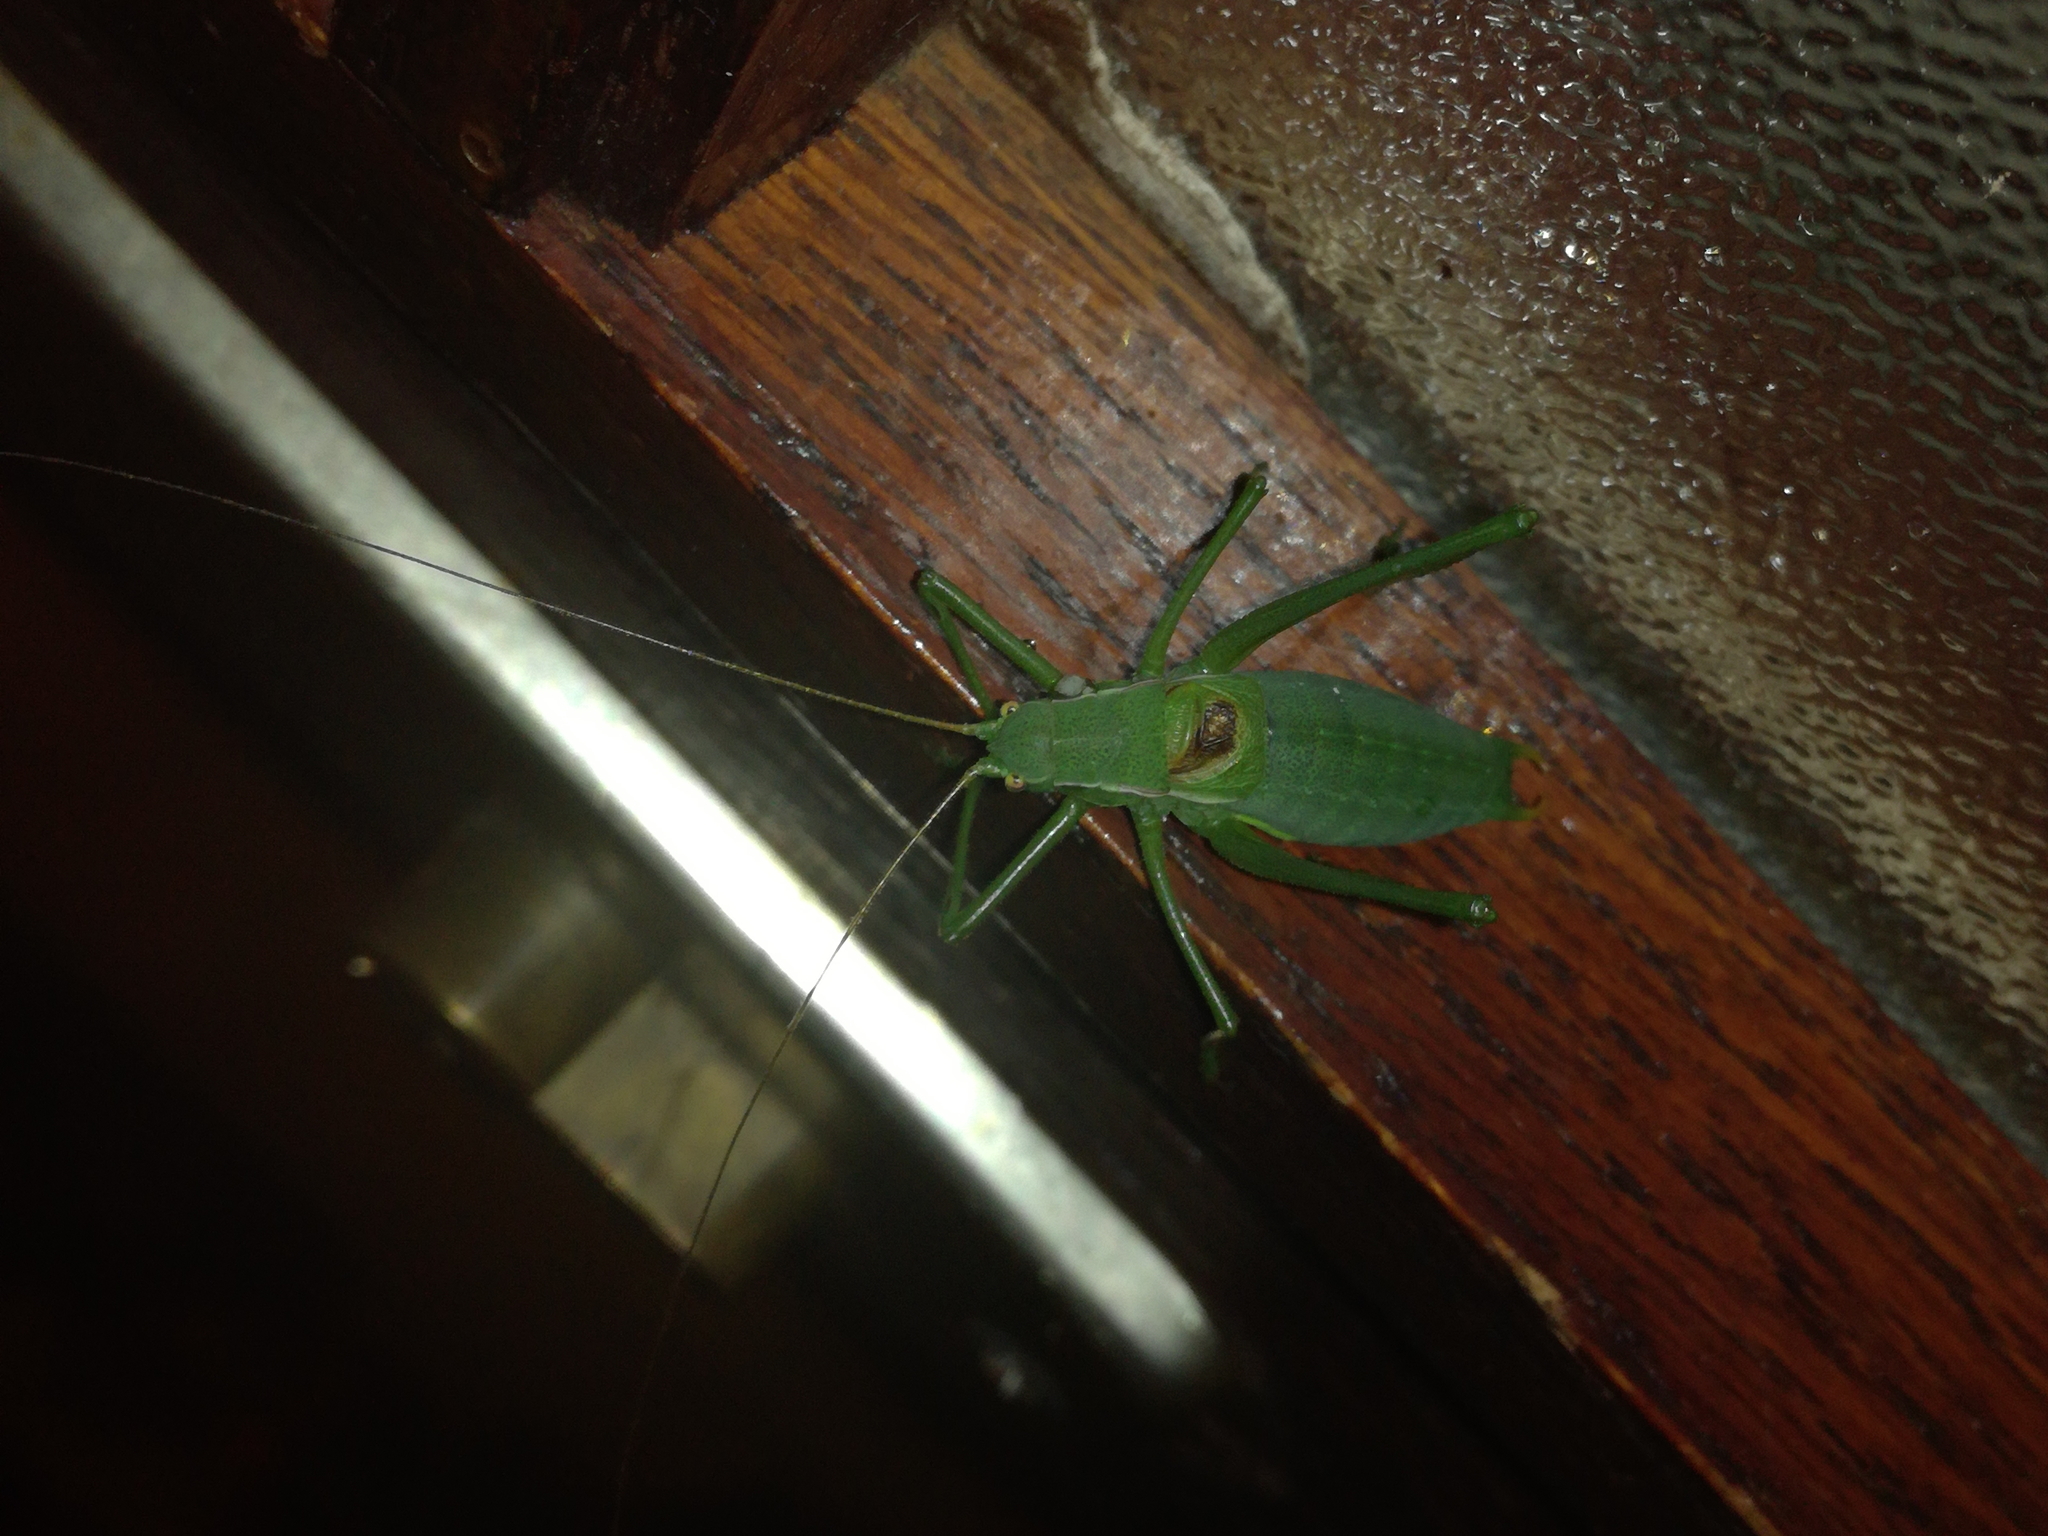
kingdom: Animalia
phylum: Arthropoda
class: Insecta
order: Orthoptera
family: Tettigoniidae
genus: Isophya
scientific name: Isophya modestior
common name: More-modest plump bush-cricket
